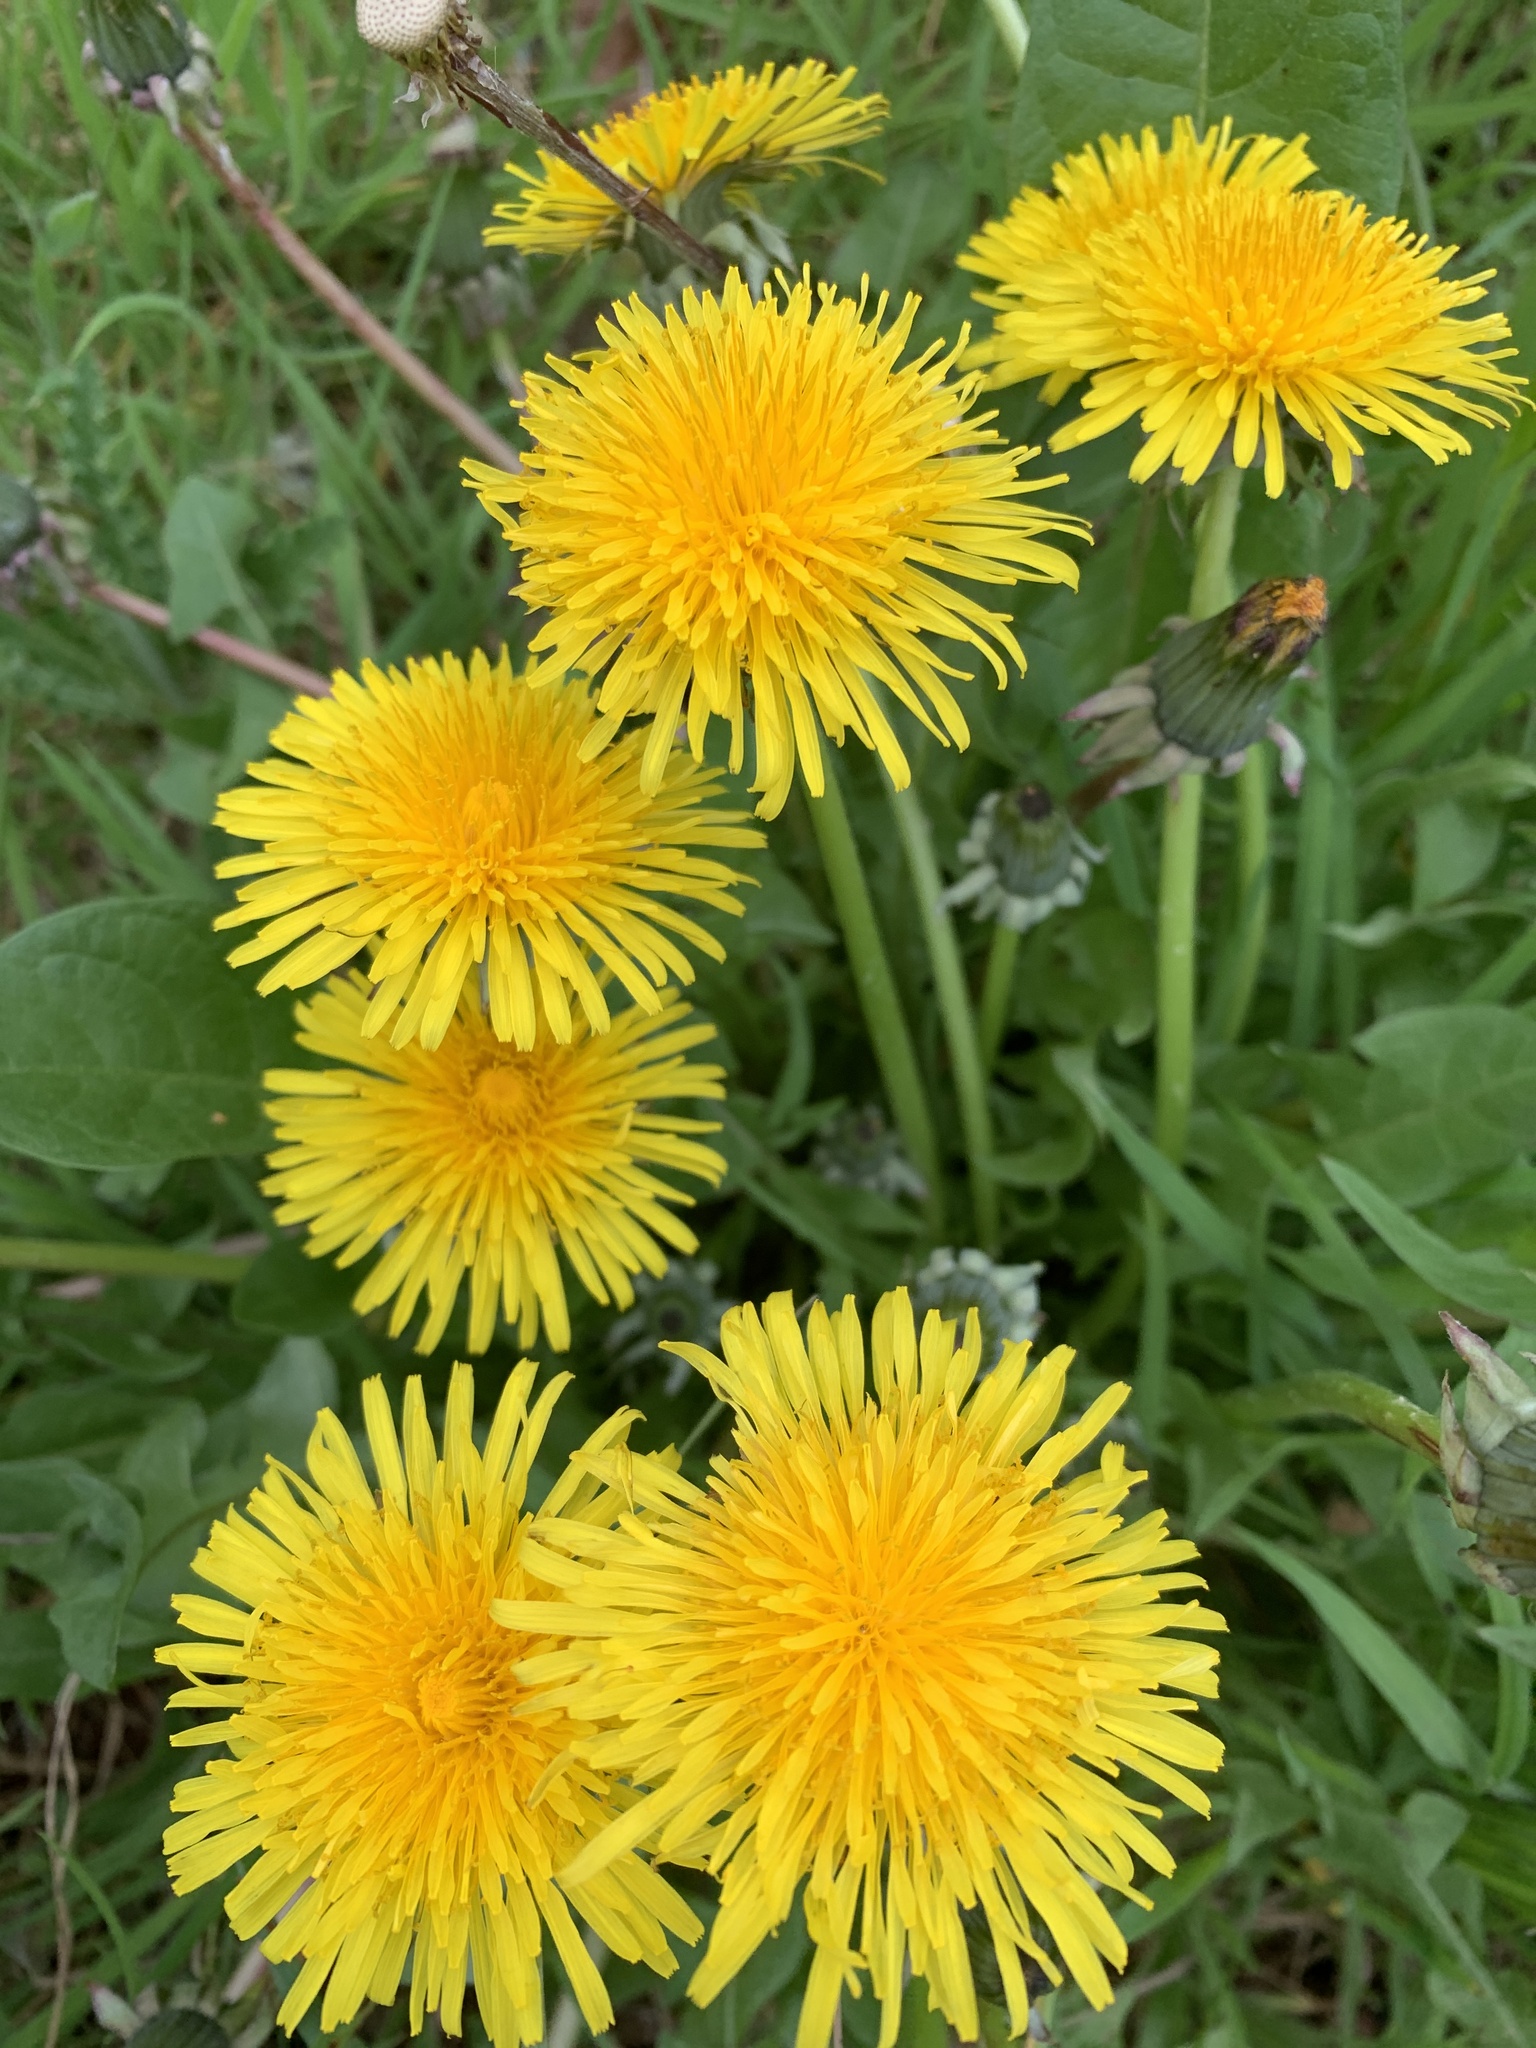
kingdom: Plantae
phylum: Tracheophyta
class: Magnoliopsida
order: Asterales
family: Asteraceae
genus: Taraxacum
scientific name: Taraxacum officinale
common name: Common dandelion
